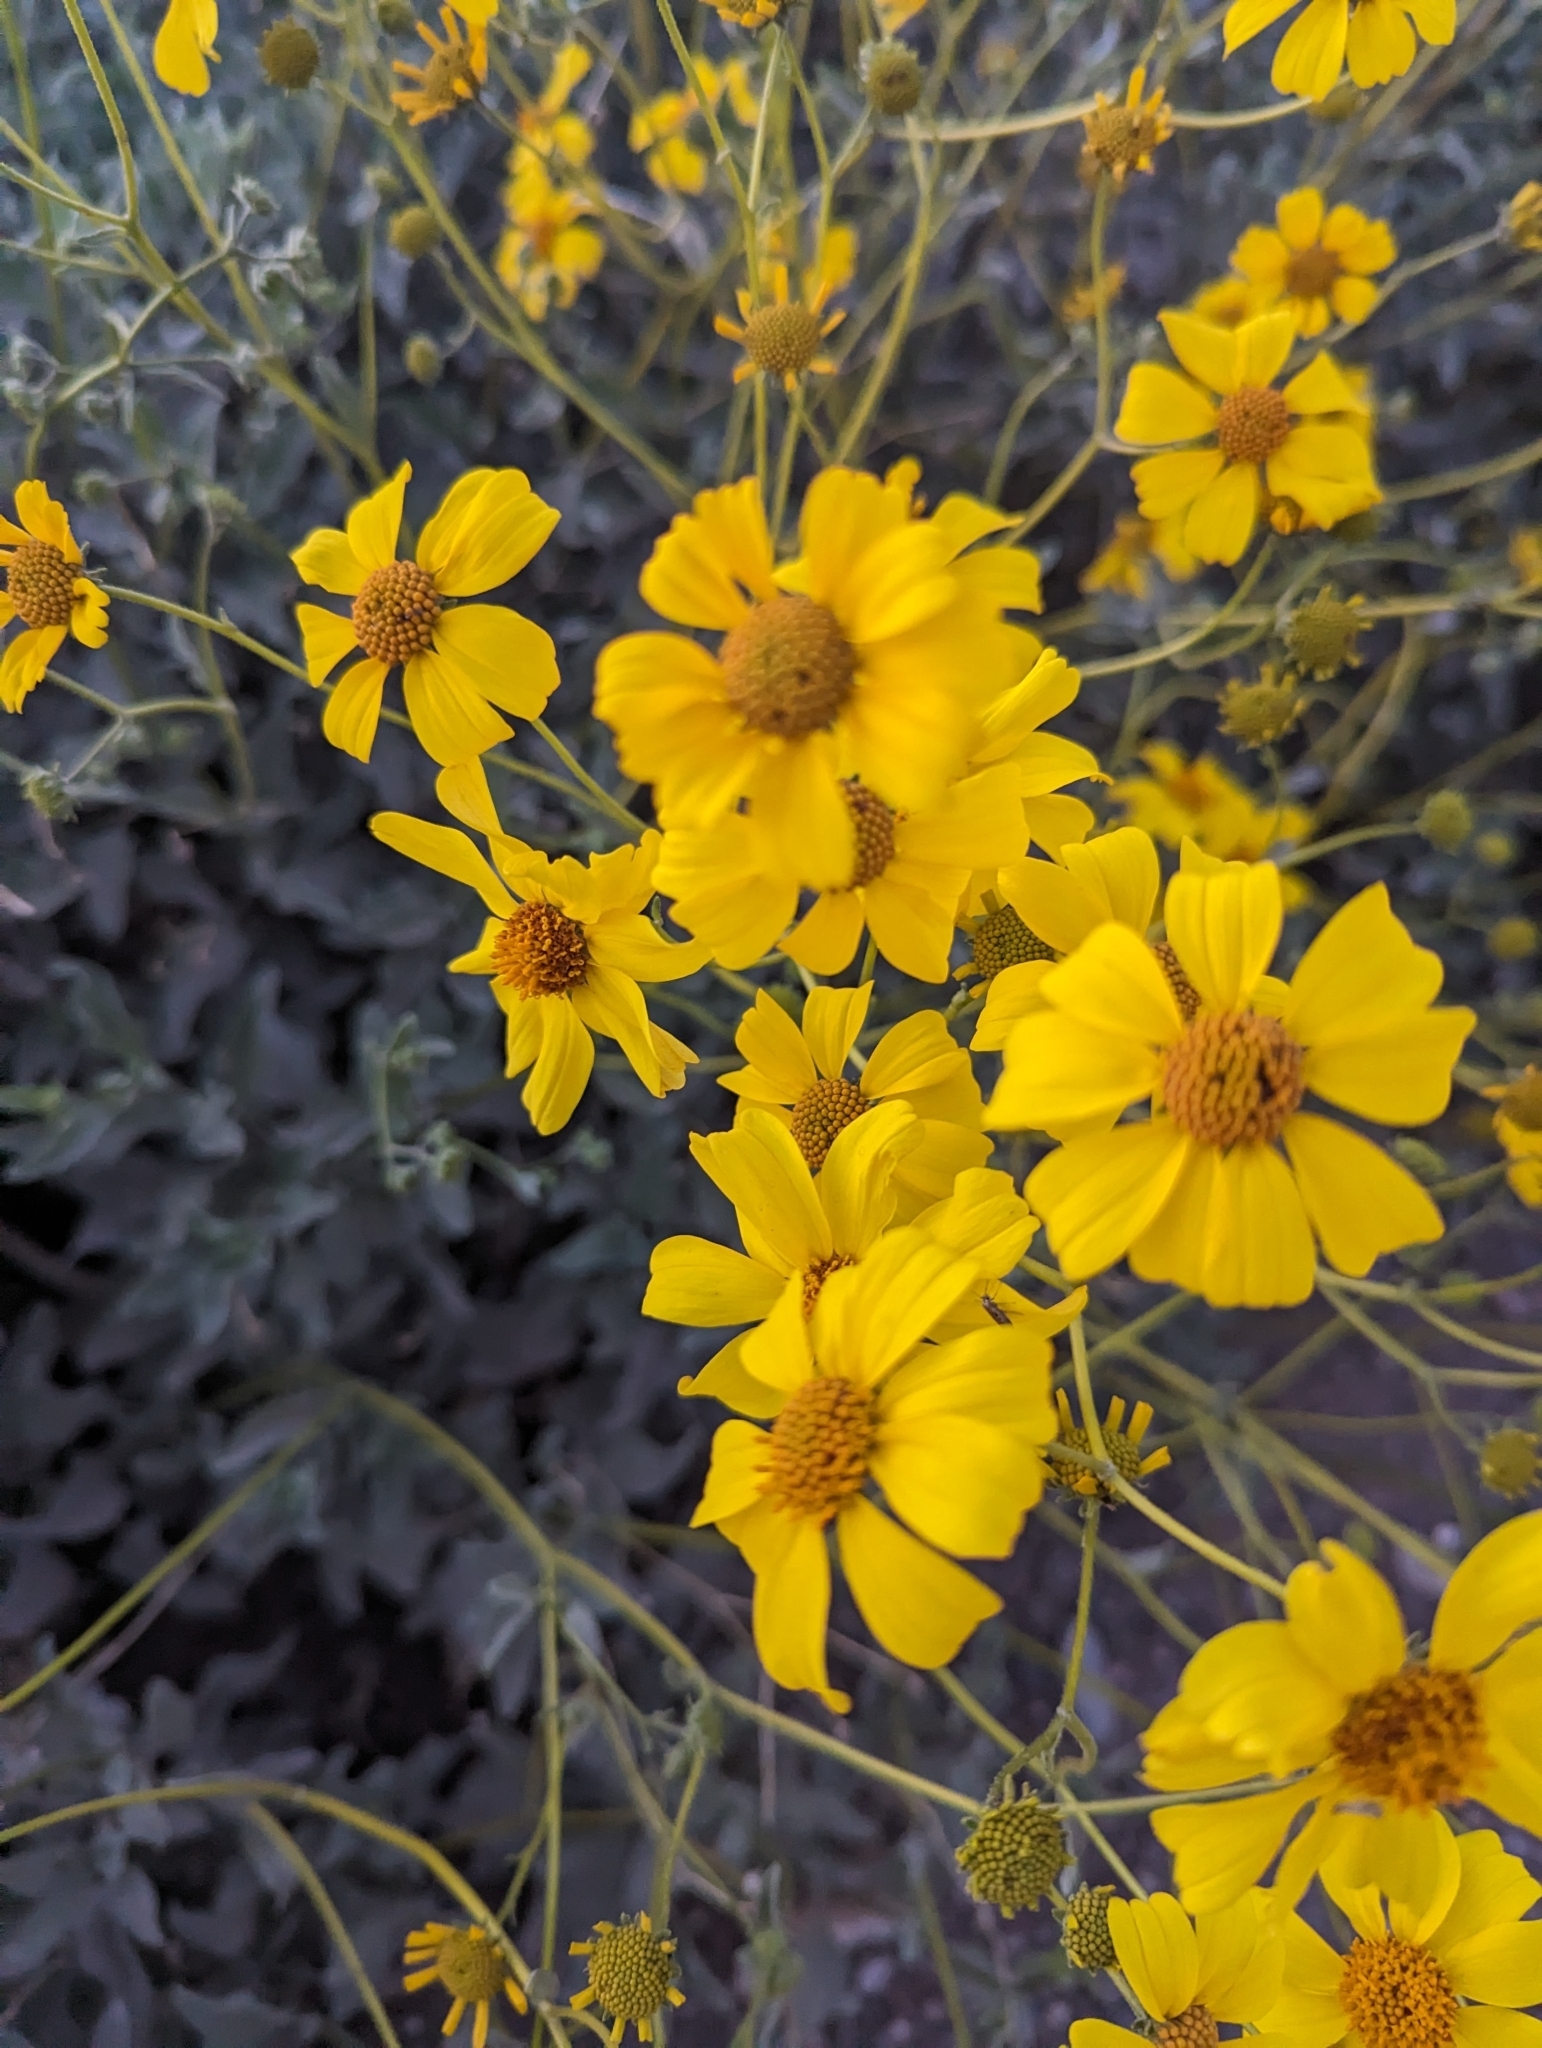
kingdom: Plantae
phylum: Tracheophyta
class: Magnoliopsida
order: Asterales
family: Asteraceae
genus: Encelia
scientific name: Encelia farinosa
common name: Brittlebush
